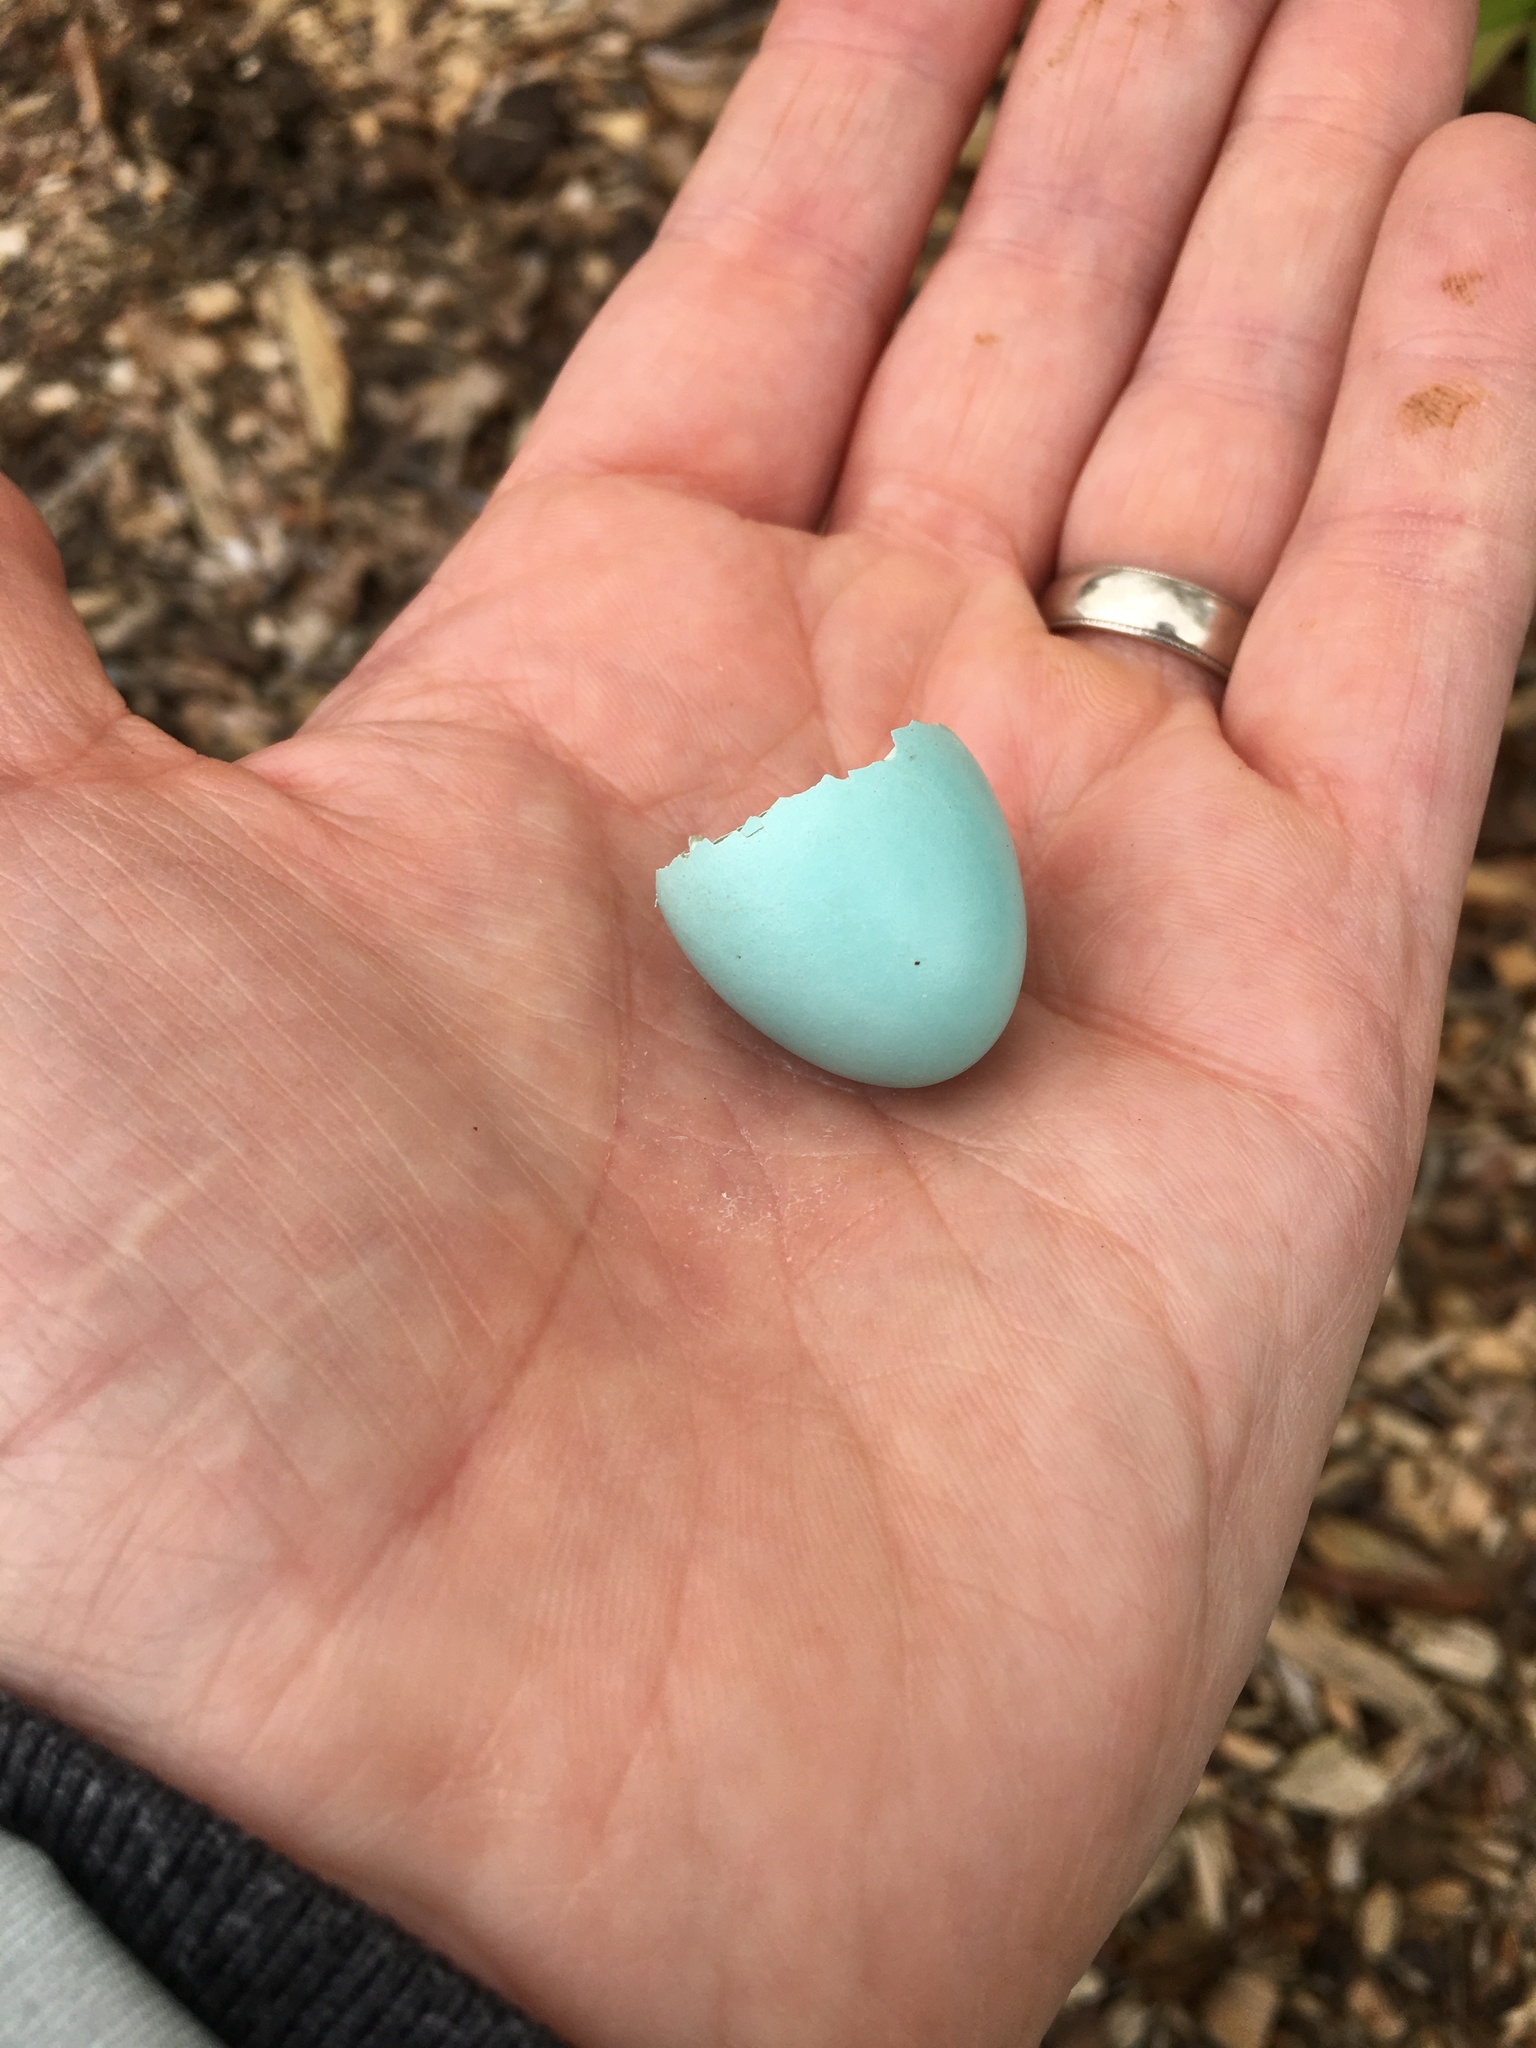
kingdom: Animalia
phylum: Chordata
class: Aves
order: Passeriformes
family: Turdidae
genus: Turdus
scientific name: Turdus migratorius
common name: American robin
